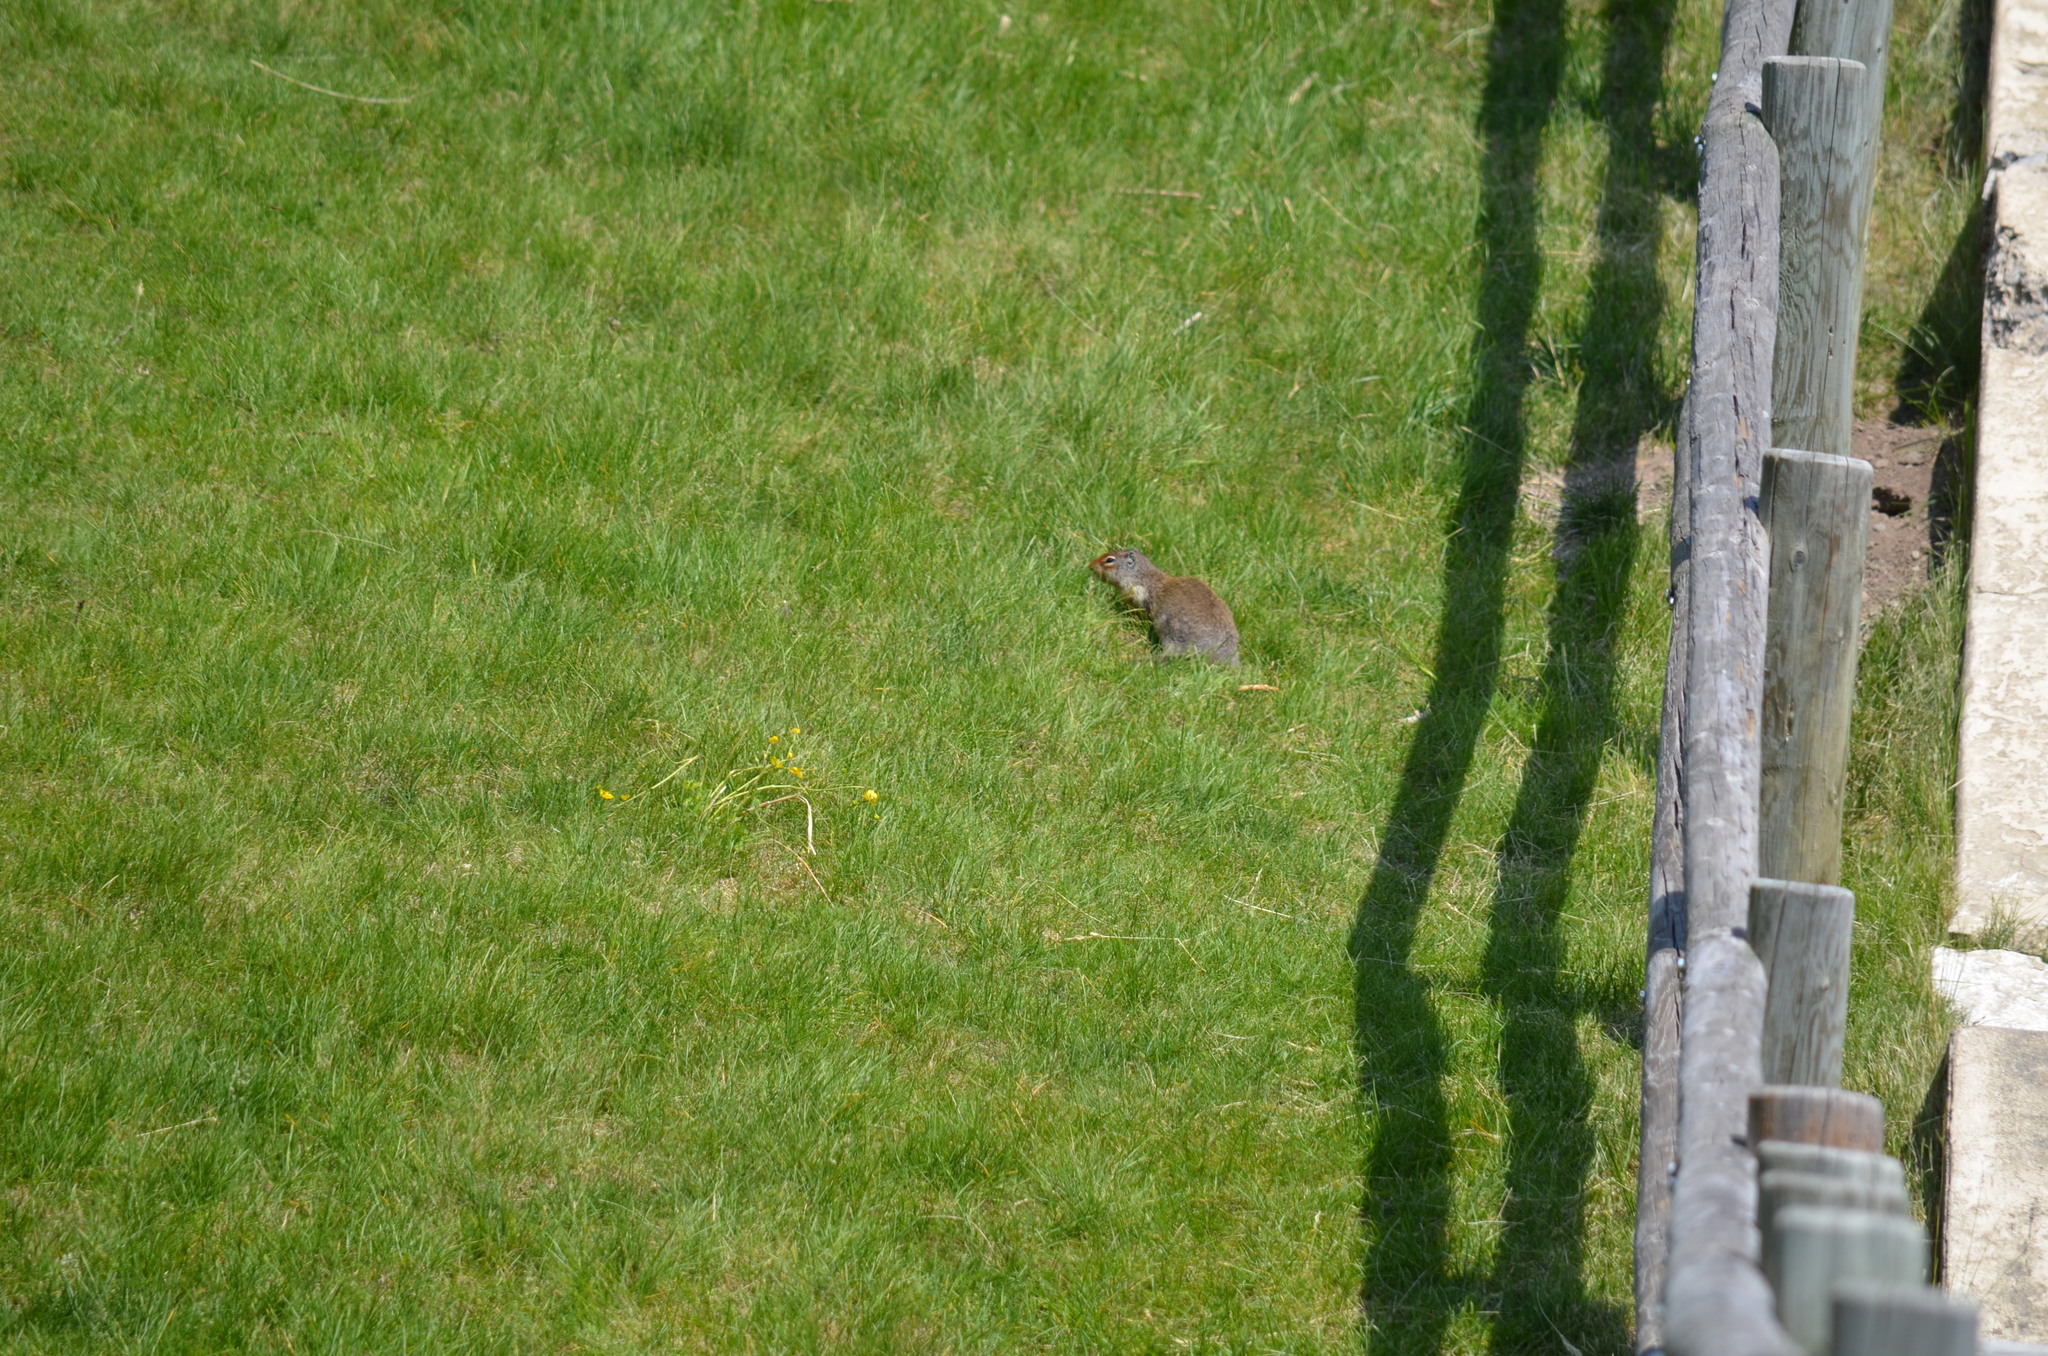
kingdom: Animalia
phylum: Chordata
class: Mammalia
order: Rodentia
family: Sciuridae
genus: Urocitellus
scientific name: Urocitellus columbianus
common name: Columbian ground squirrel
